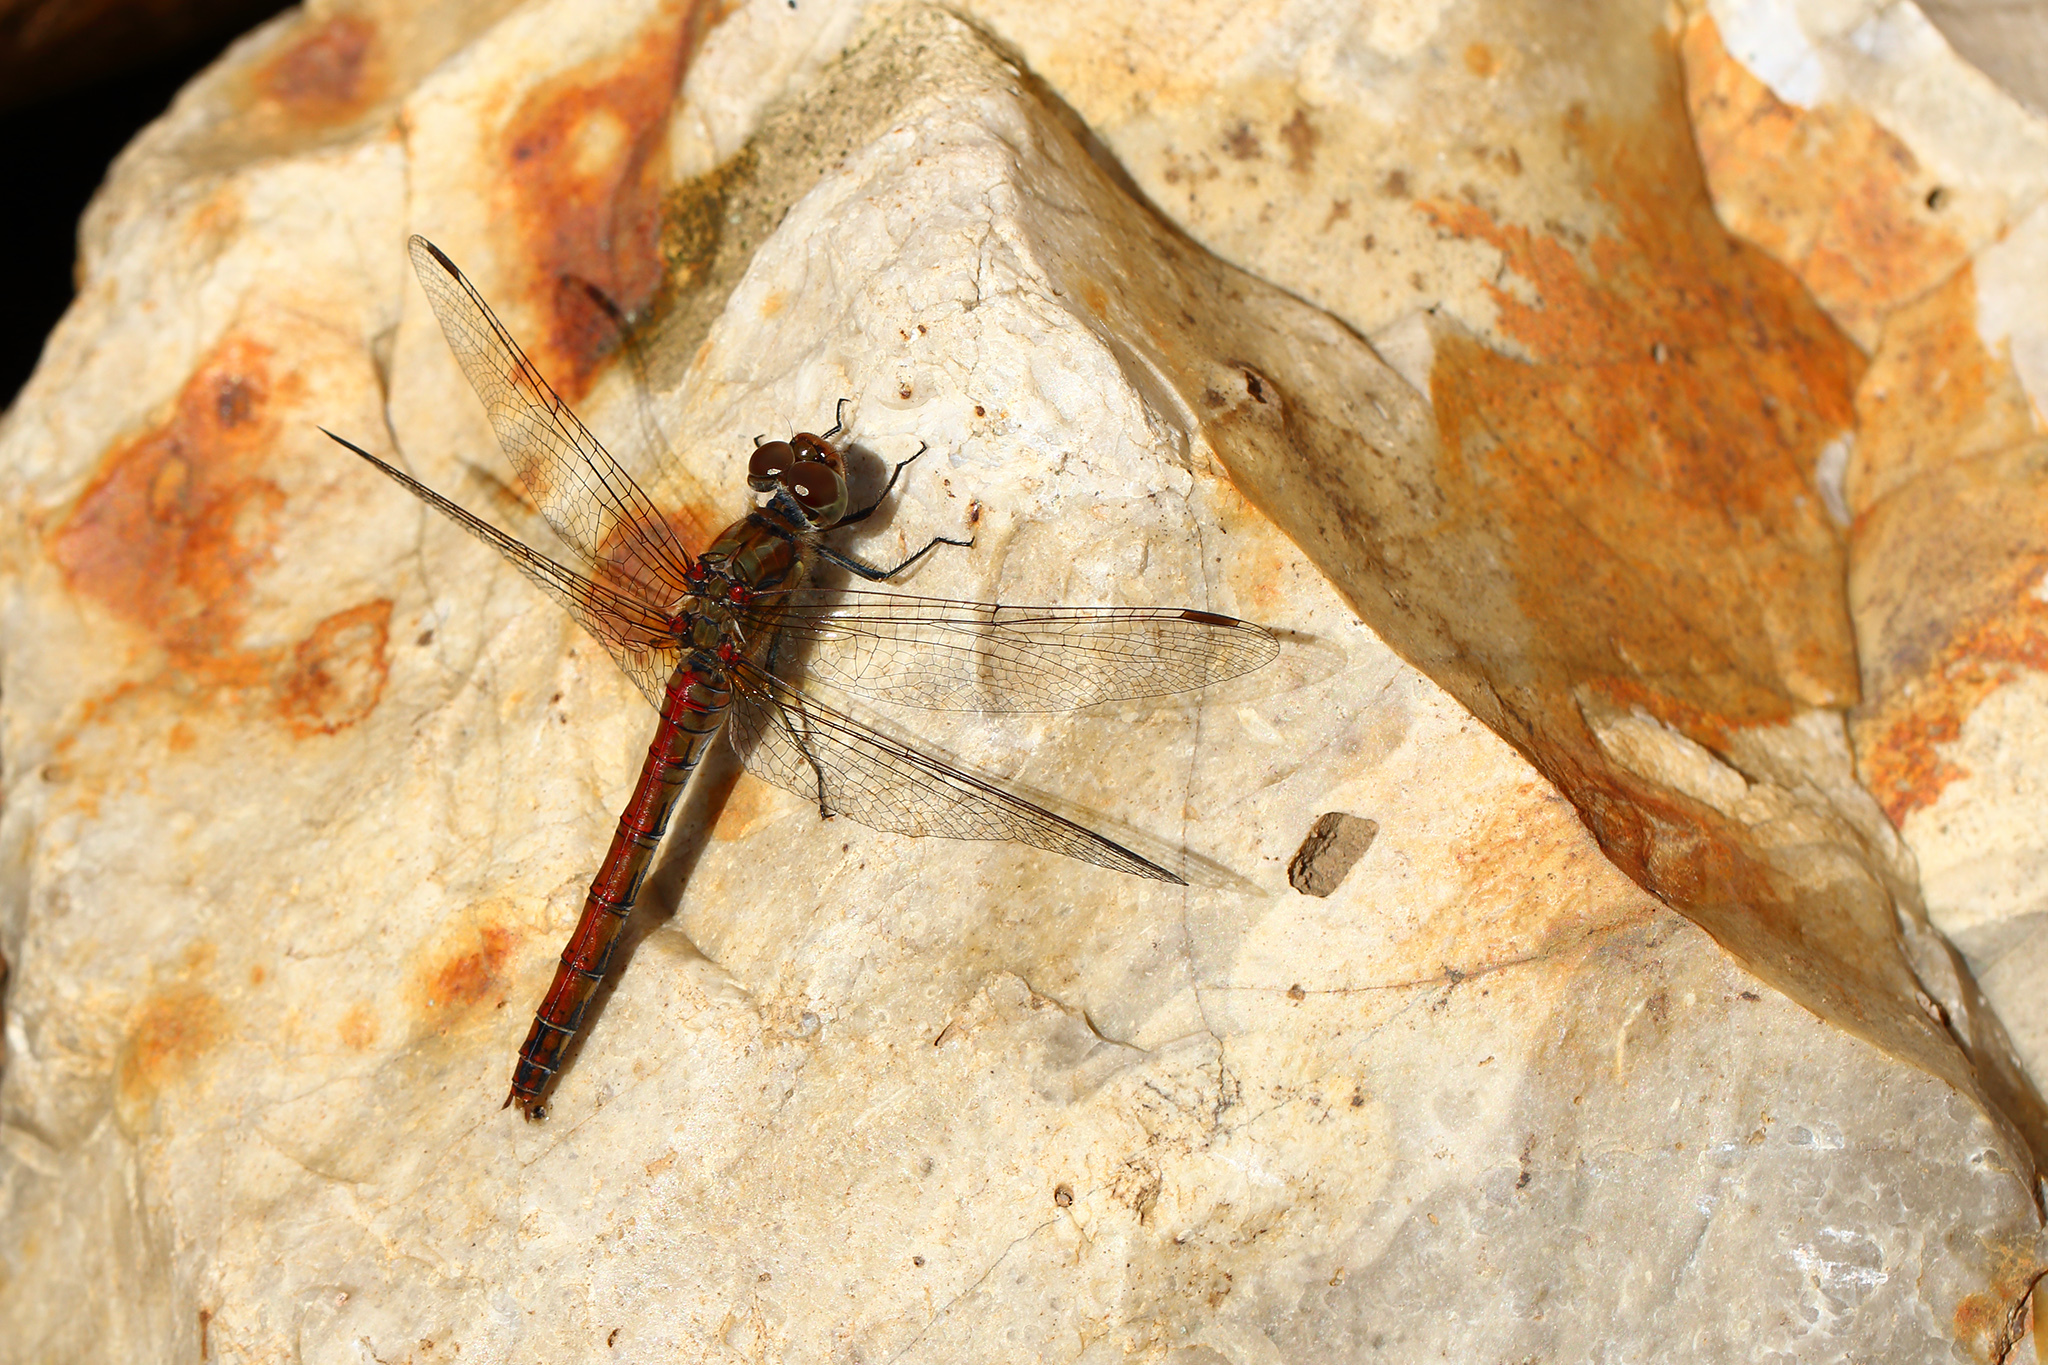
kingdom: Animalia
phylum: Arthropoda
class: Insecta
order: Odonata
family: Libellulidae
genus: Sympetrum
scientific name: Sympetrum striolatum
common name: Common darter
